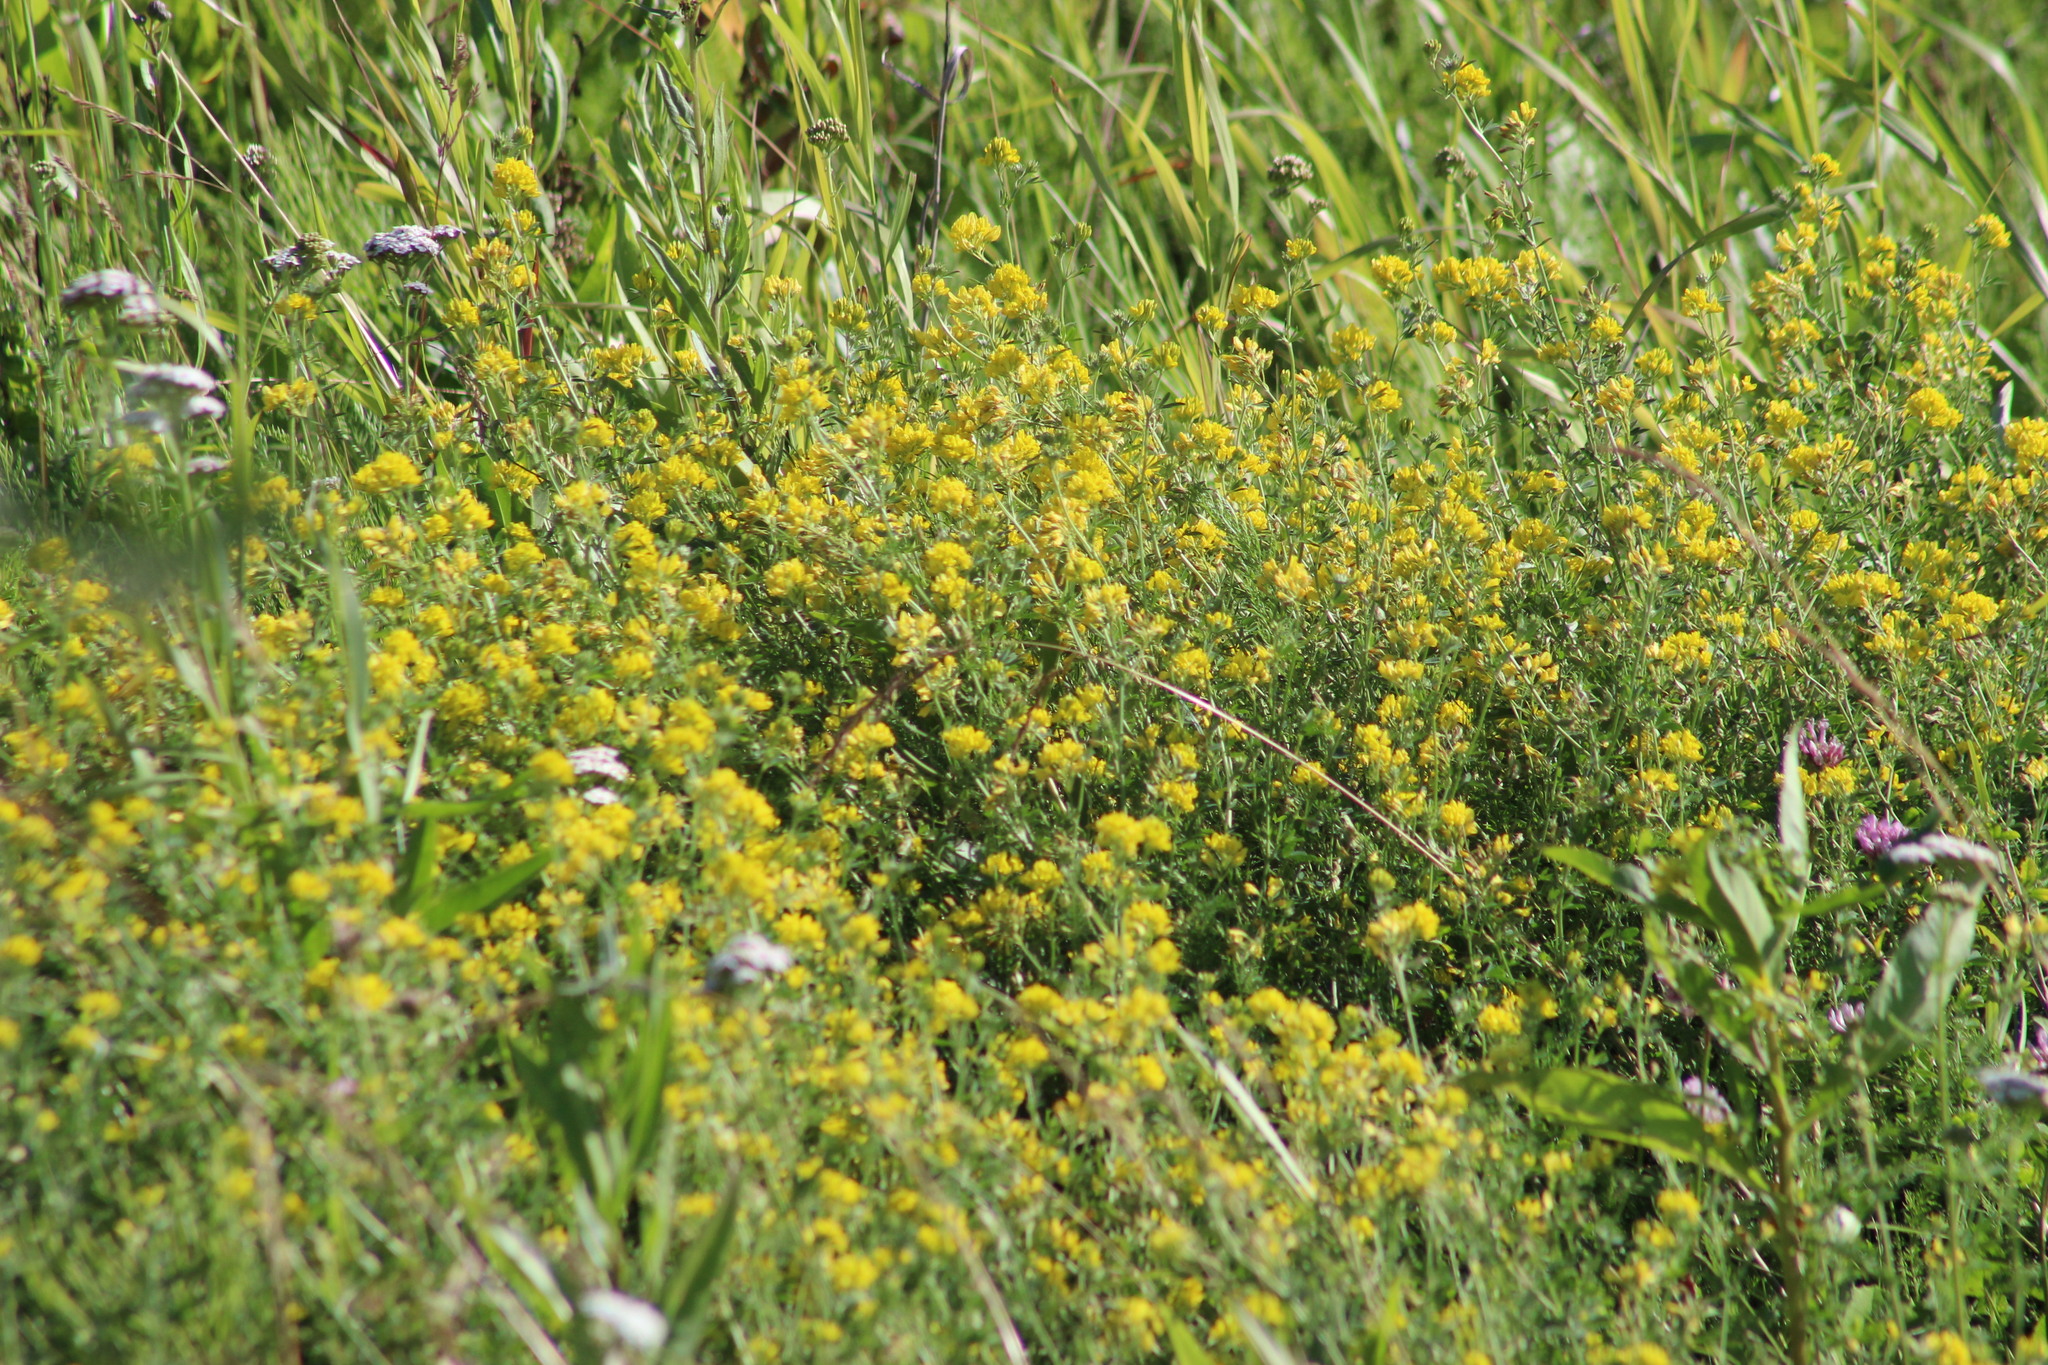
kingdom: Plantae
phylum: Tracheophyta
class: Magnoliopsida
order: Fabales
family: Fabaceae
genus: Medicago
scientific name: Medicago falcata
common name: Sickle medick
